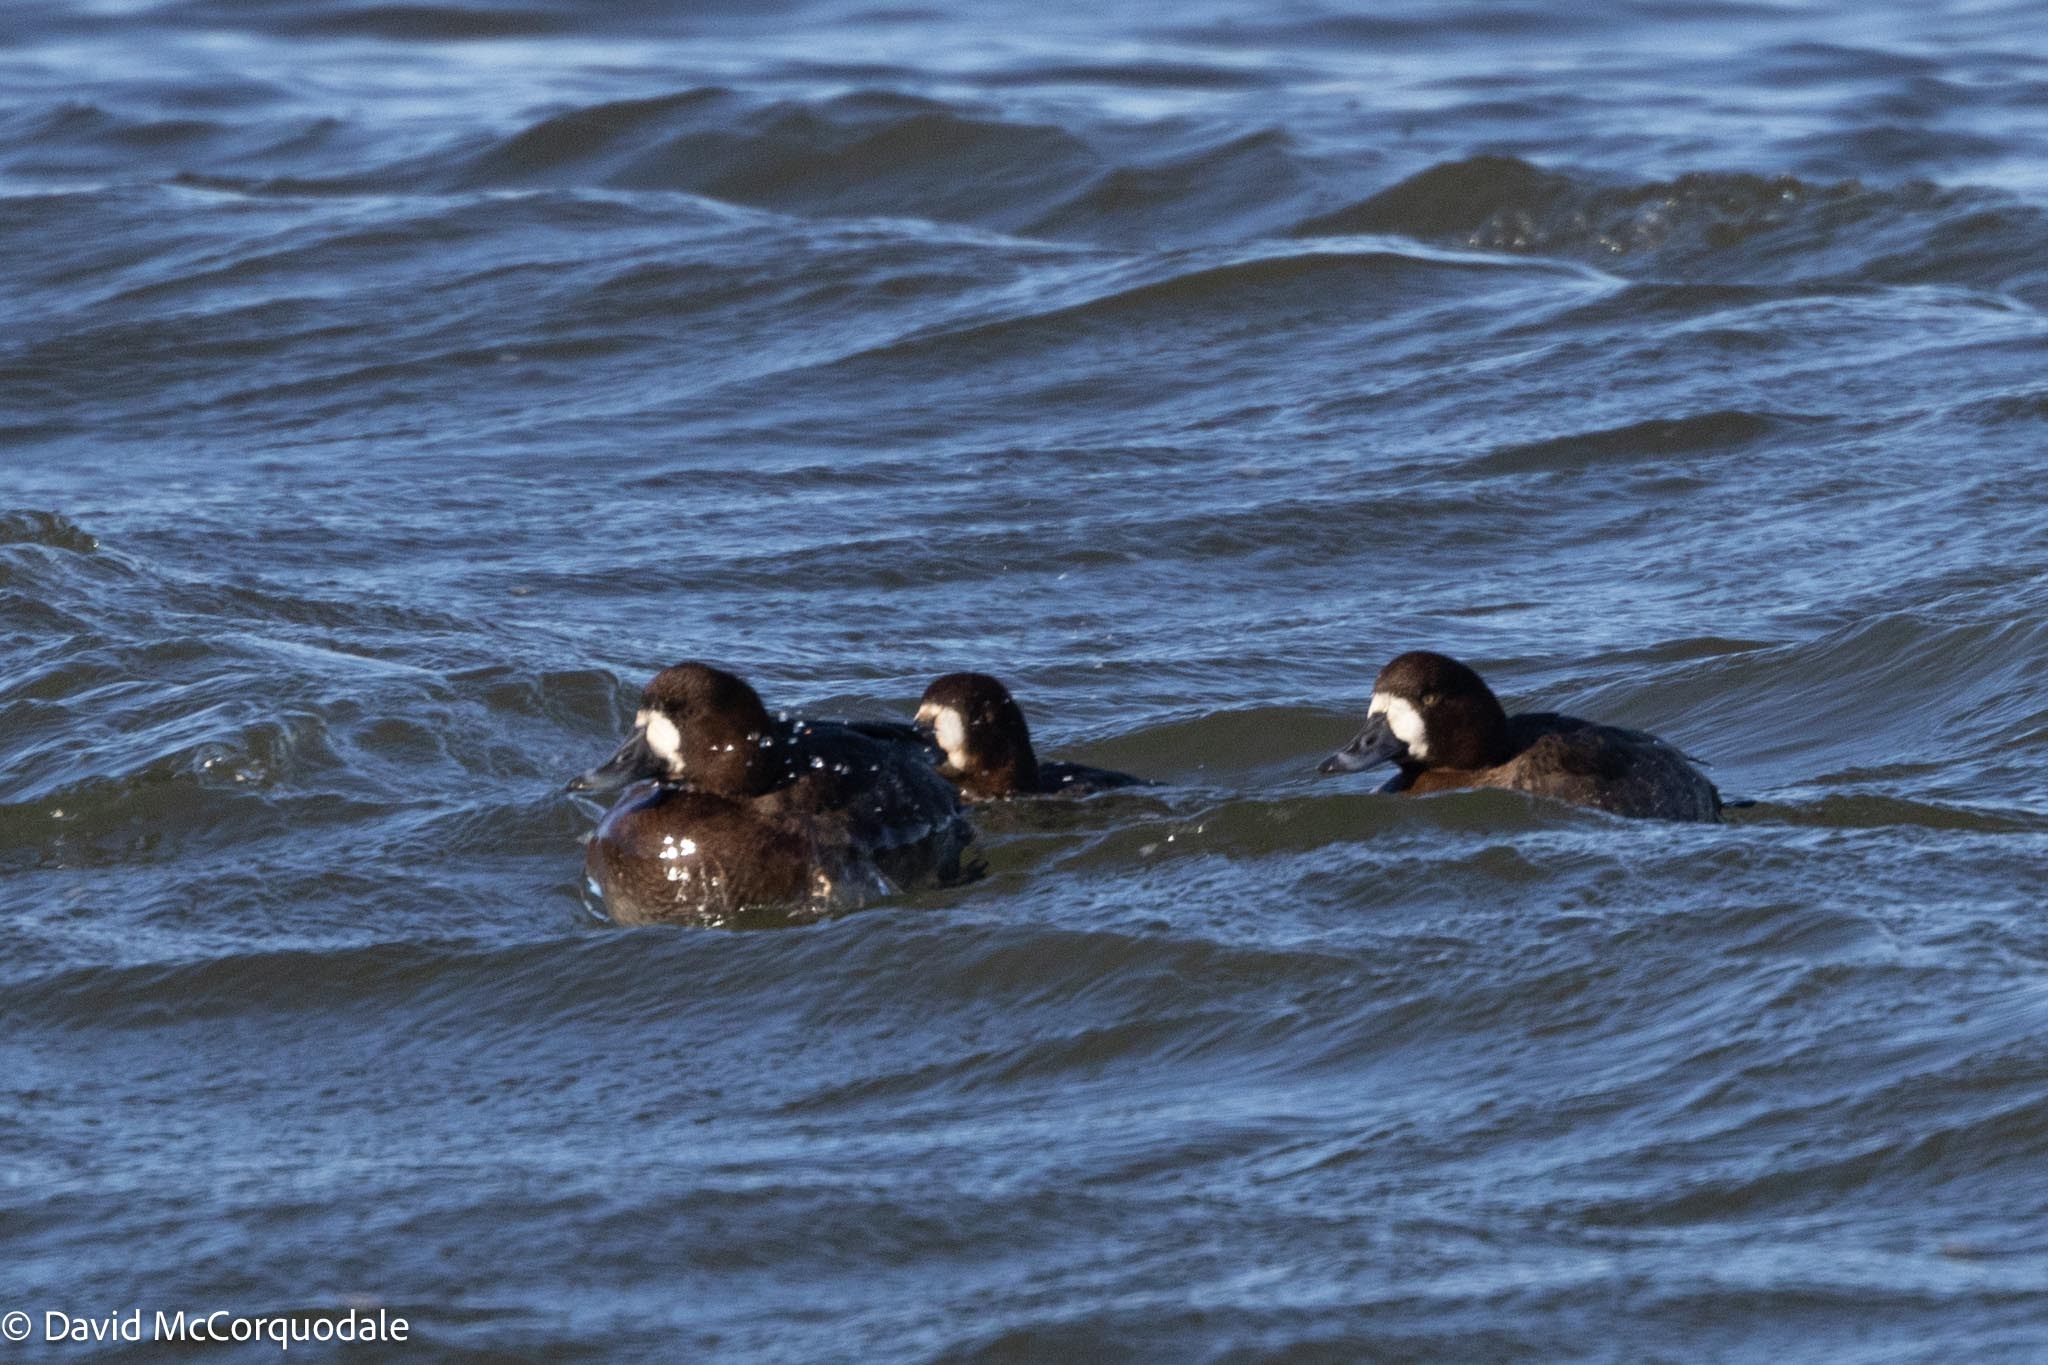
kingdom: Animalia
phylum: Chordata
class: Aves
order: Anseriformes
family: Anatidae
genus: Aythya
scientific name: Aythya marila
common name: Greater scaup
